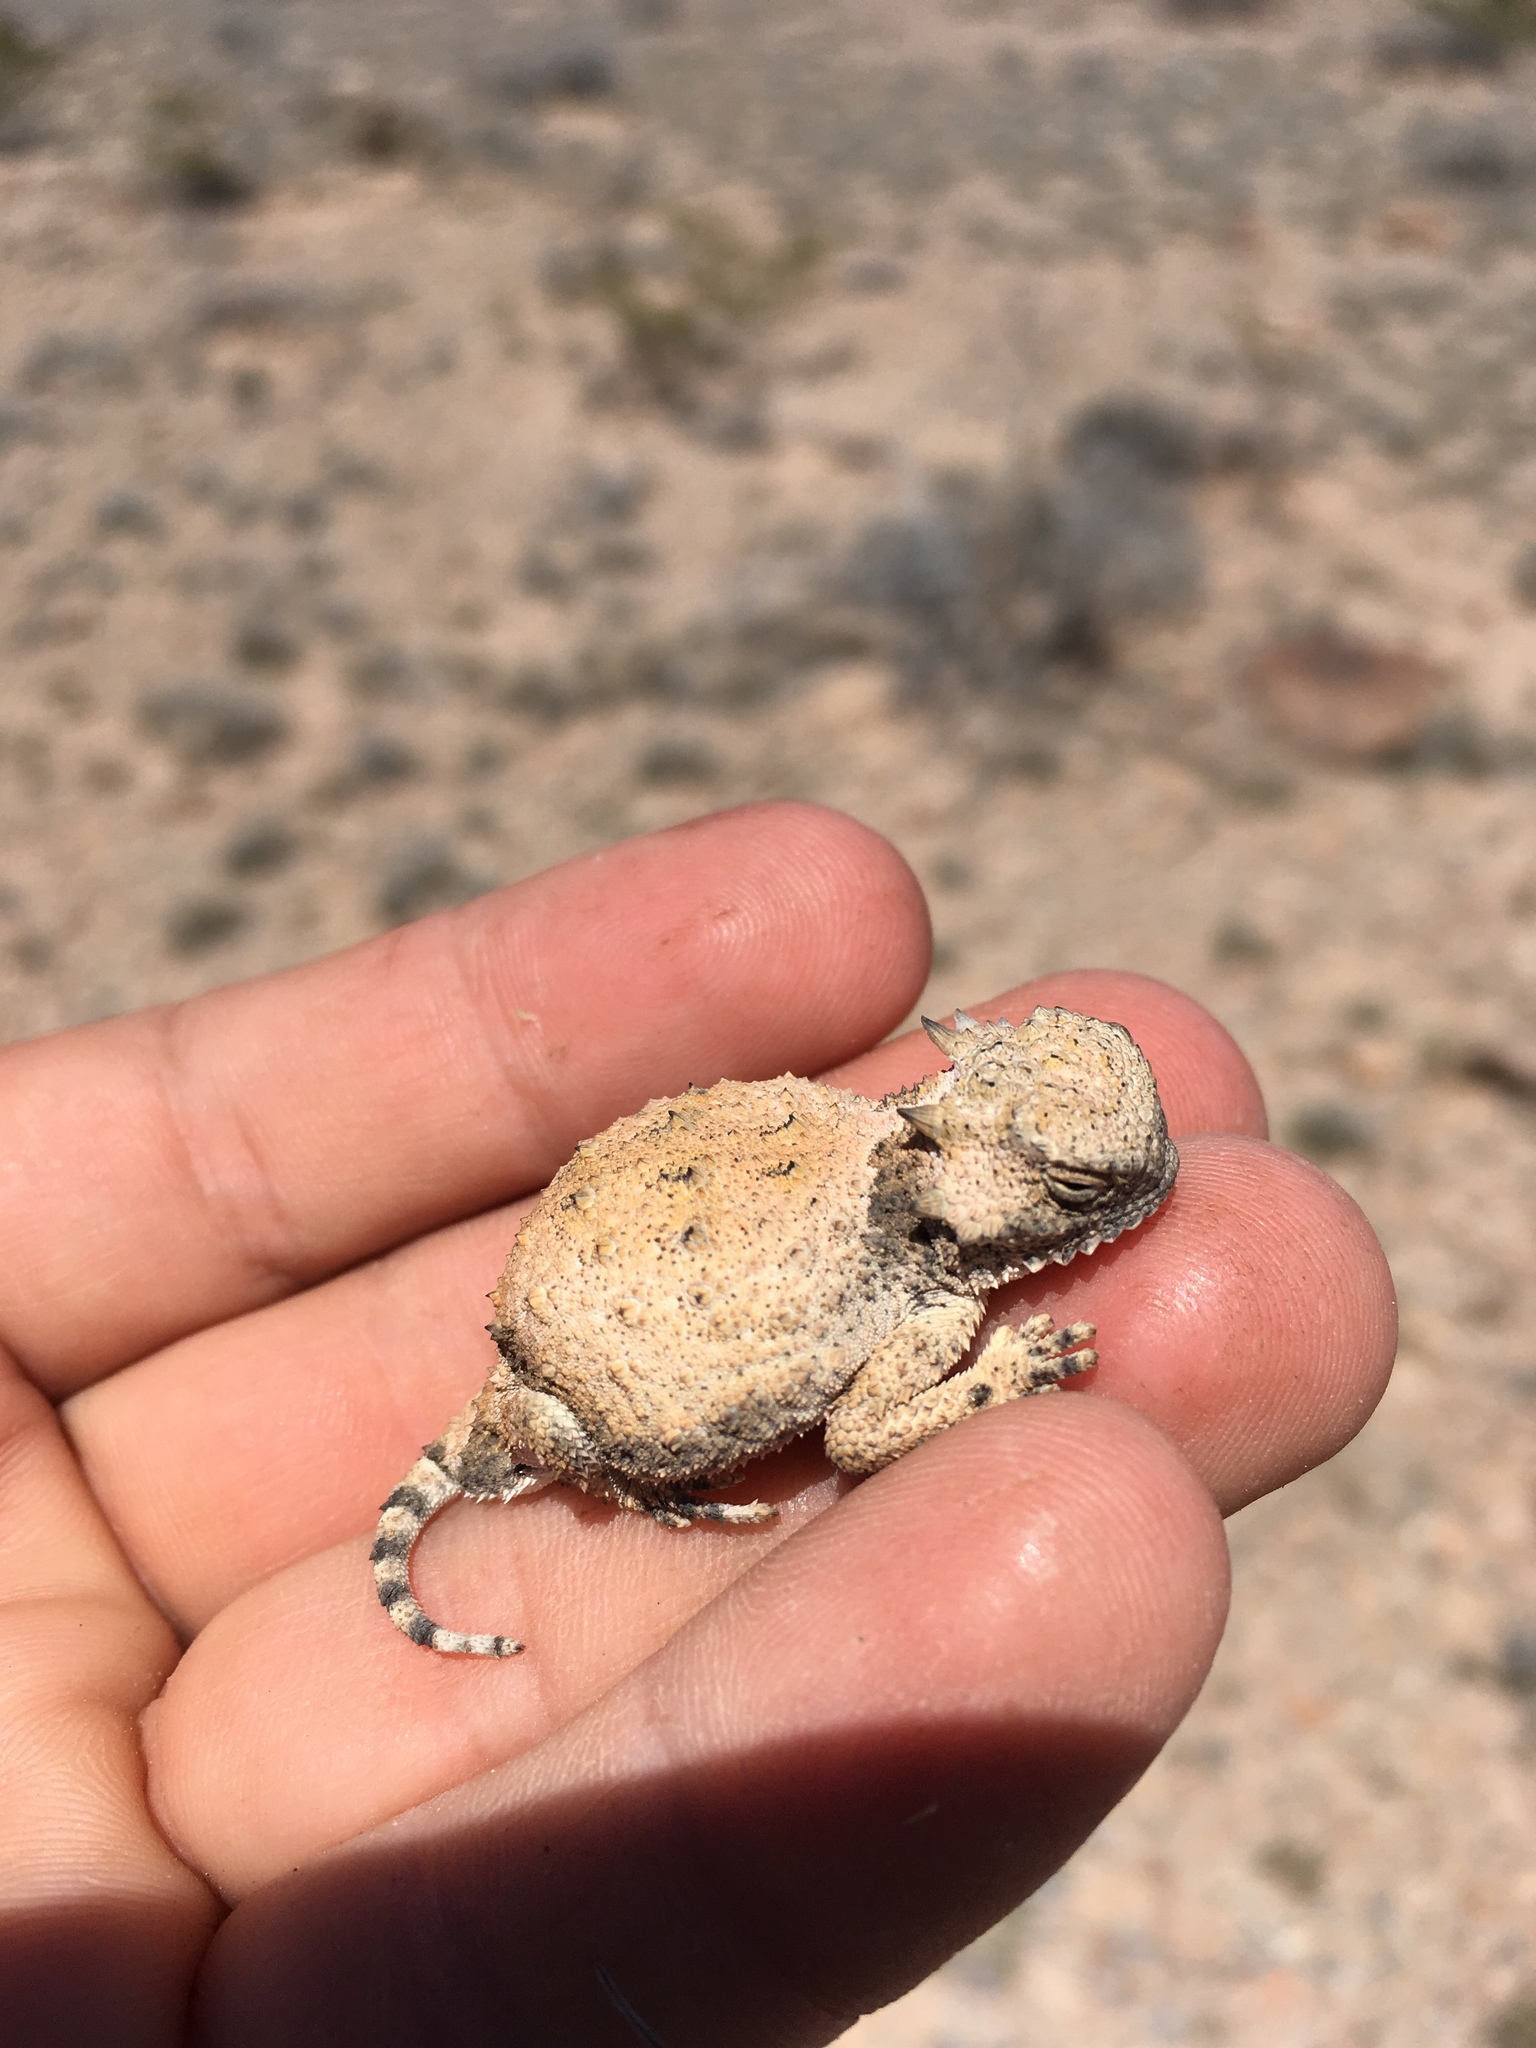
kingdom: Animalia
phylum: Chordata
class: Squamata
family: Phrynosomatidae
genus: Phrynosoma
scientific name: Phrynosoma modestum
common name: Roundtail horned lizard
